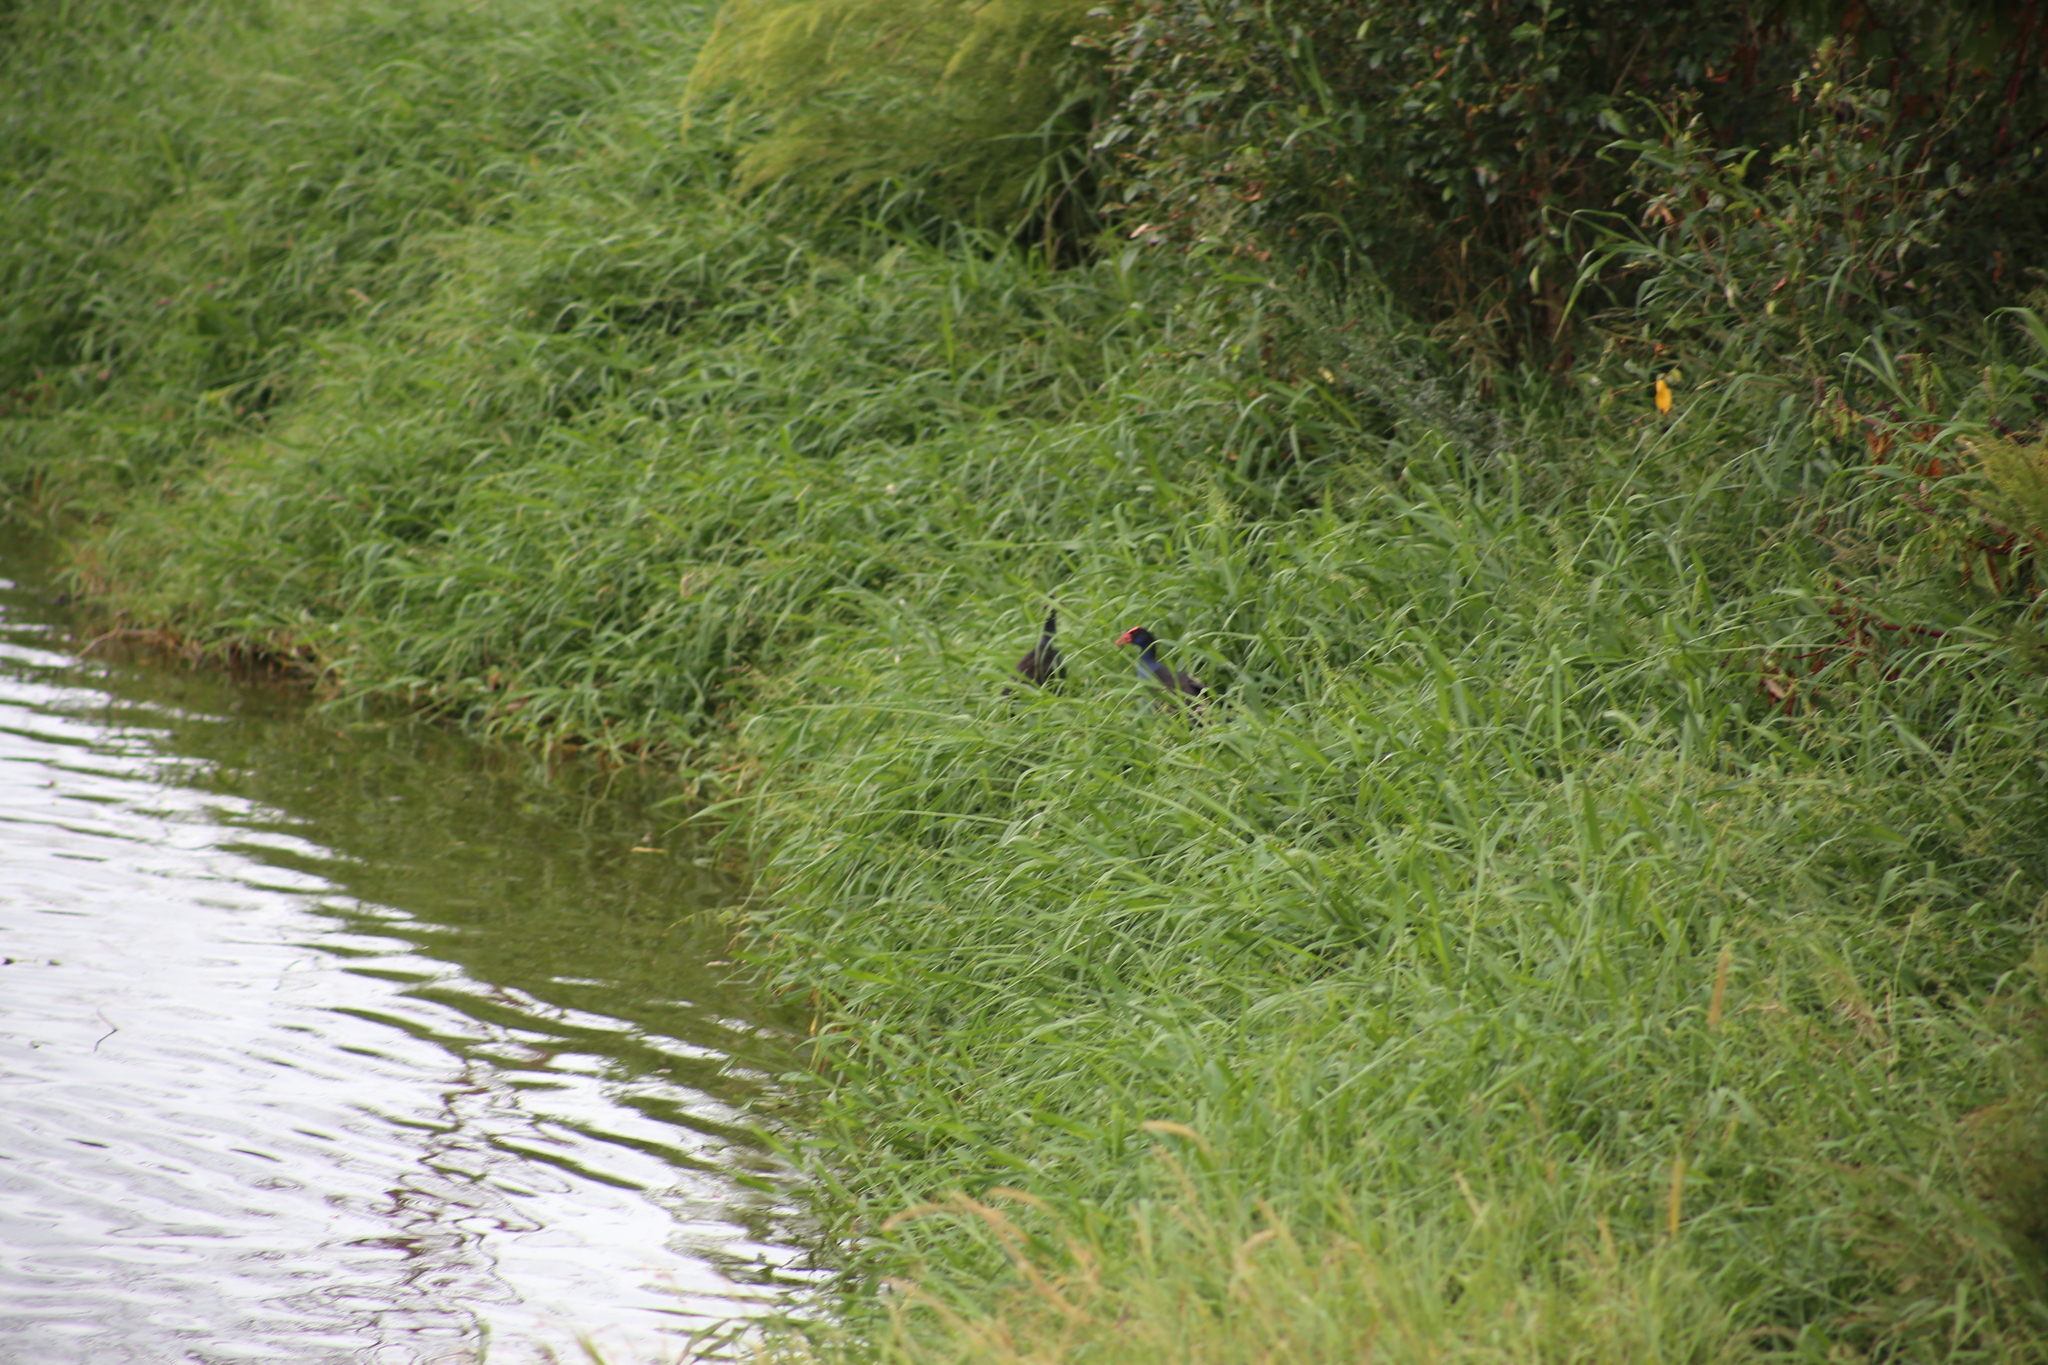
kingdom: Animalia
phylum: Chordata
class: Aves
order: Gruiformes
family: Rallidae
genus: Porphyrio
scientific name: Porphyrio melanotus
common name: Australasian swamphen
